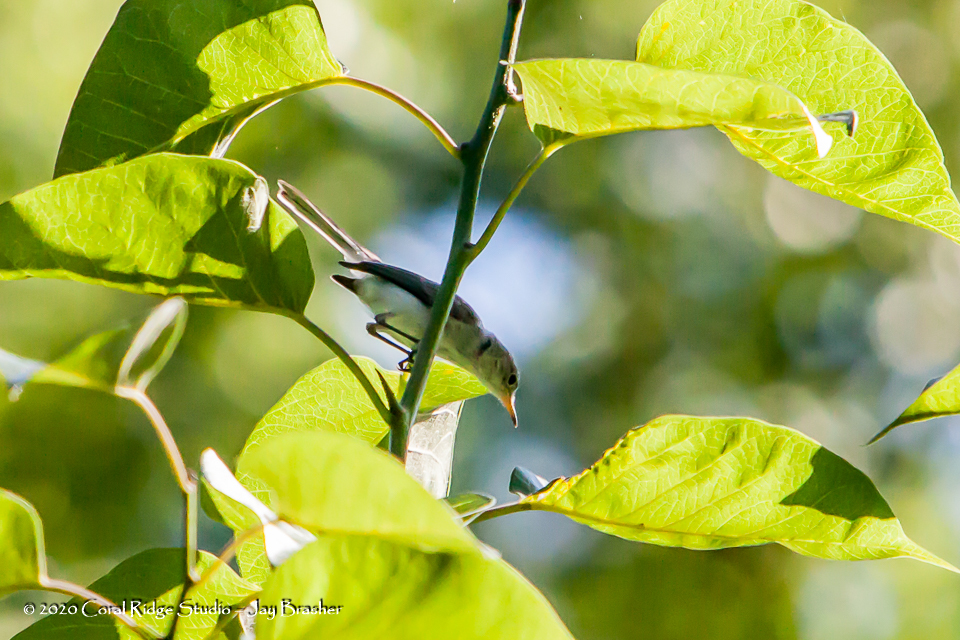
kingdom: Animalia
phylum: Chordata
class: Aves
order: Passeriformes
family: Polioptilidae
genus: Polioptila
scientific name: Polioptila caerulea
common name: Blue-gray gnatcatcher
